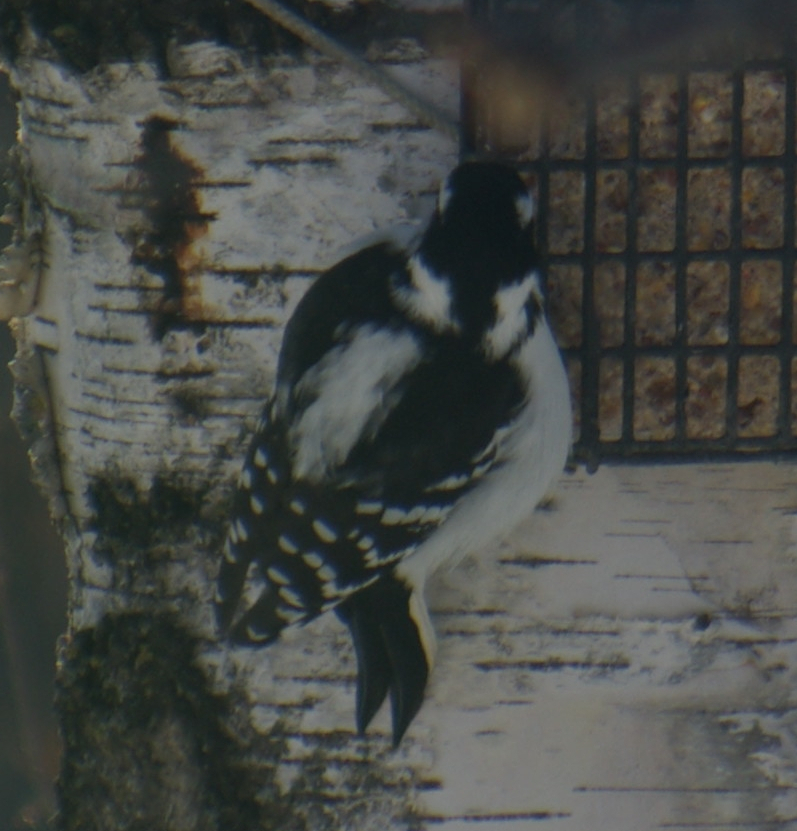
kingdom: Animalia
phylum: Chordata
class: Aves
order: Piciformes
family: Picidae
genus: Dryobates
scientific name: Dryobates pubescens
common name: Downy woodpecker
